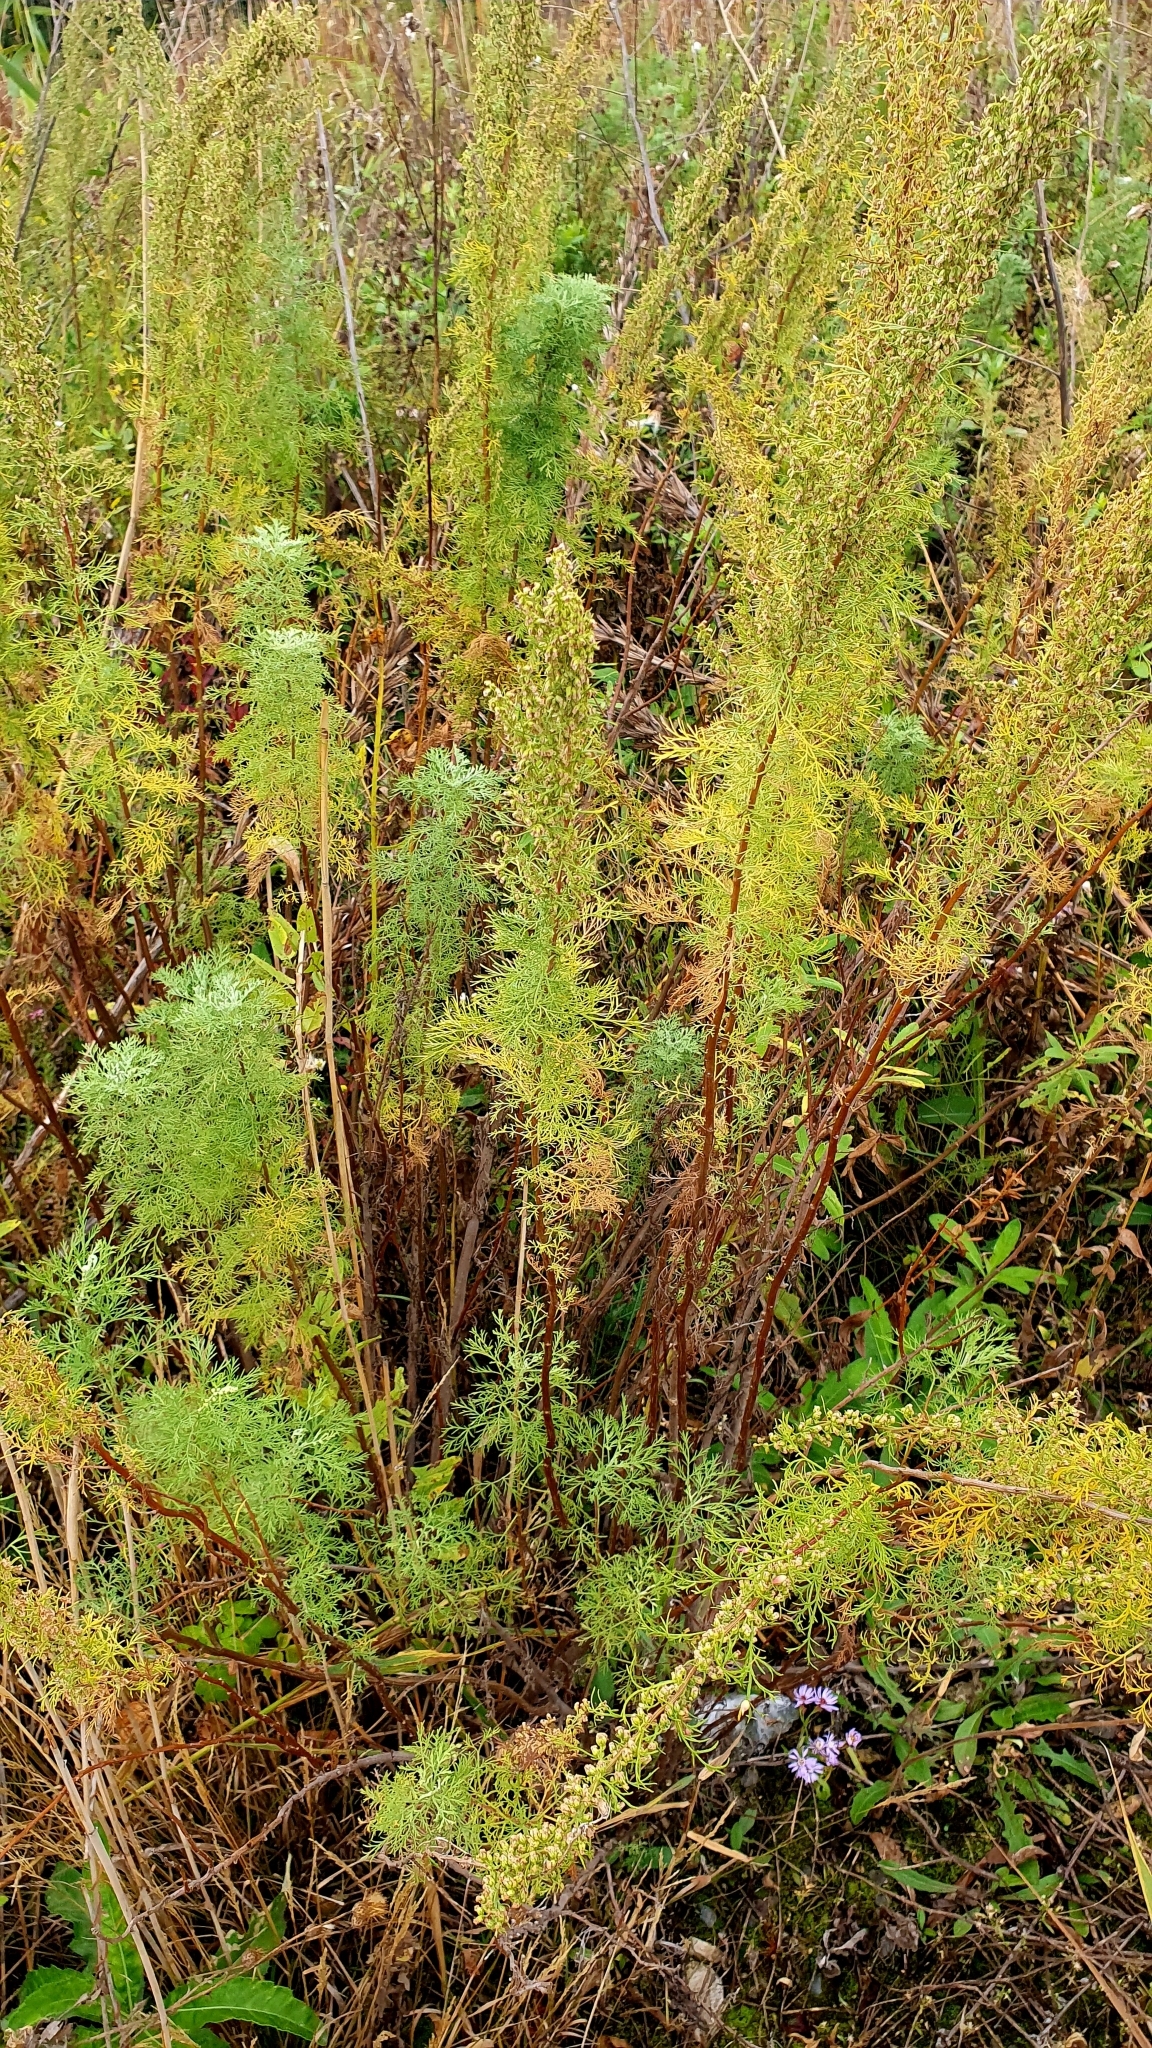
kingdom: Plantae
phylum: Tracheophyta
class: Magnoliopsida
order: Asterales
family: Asteraceae
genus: Artemisia
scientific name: Artemisia abrotanum
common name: Southernwood
